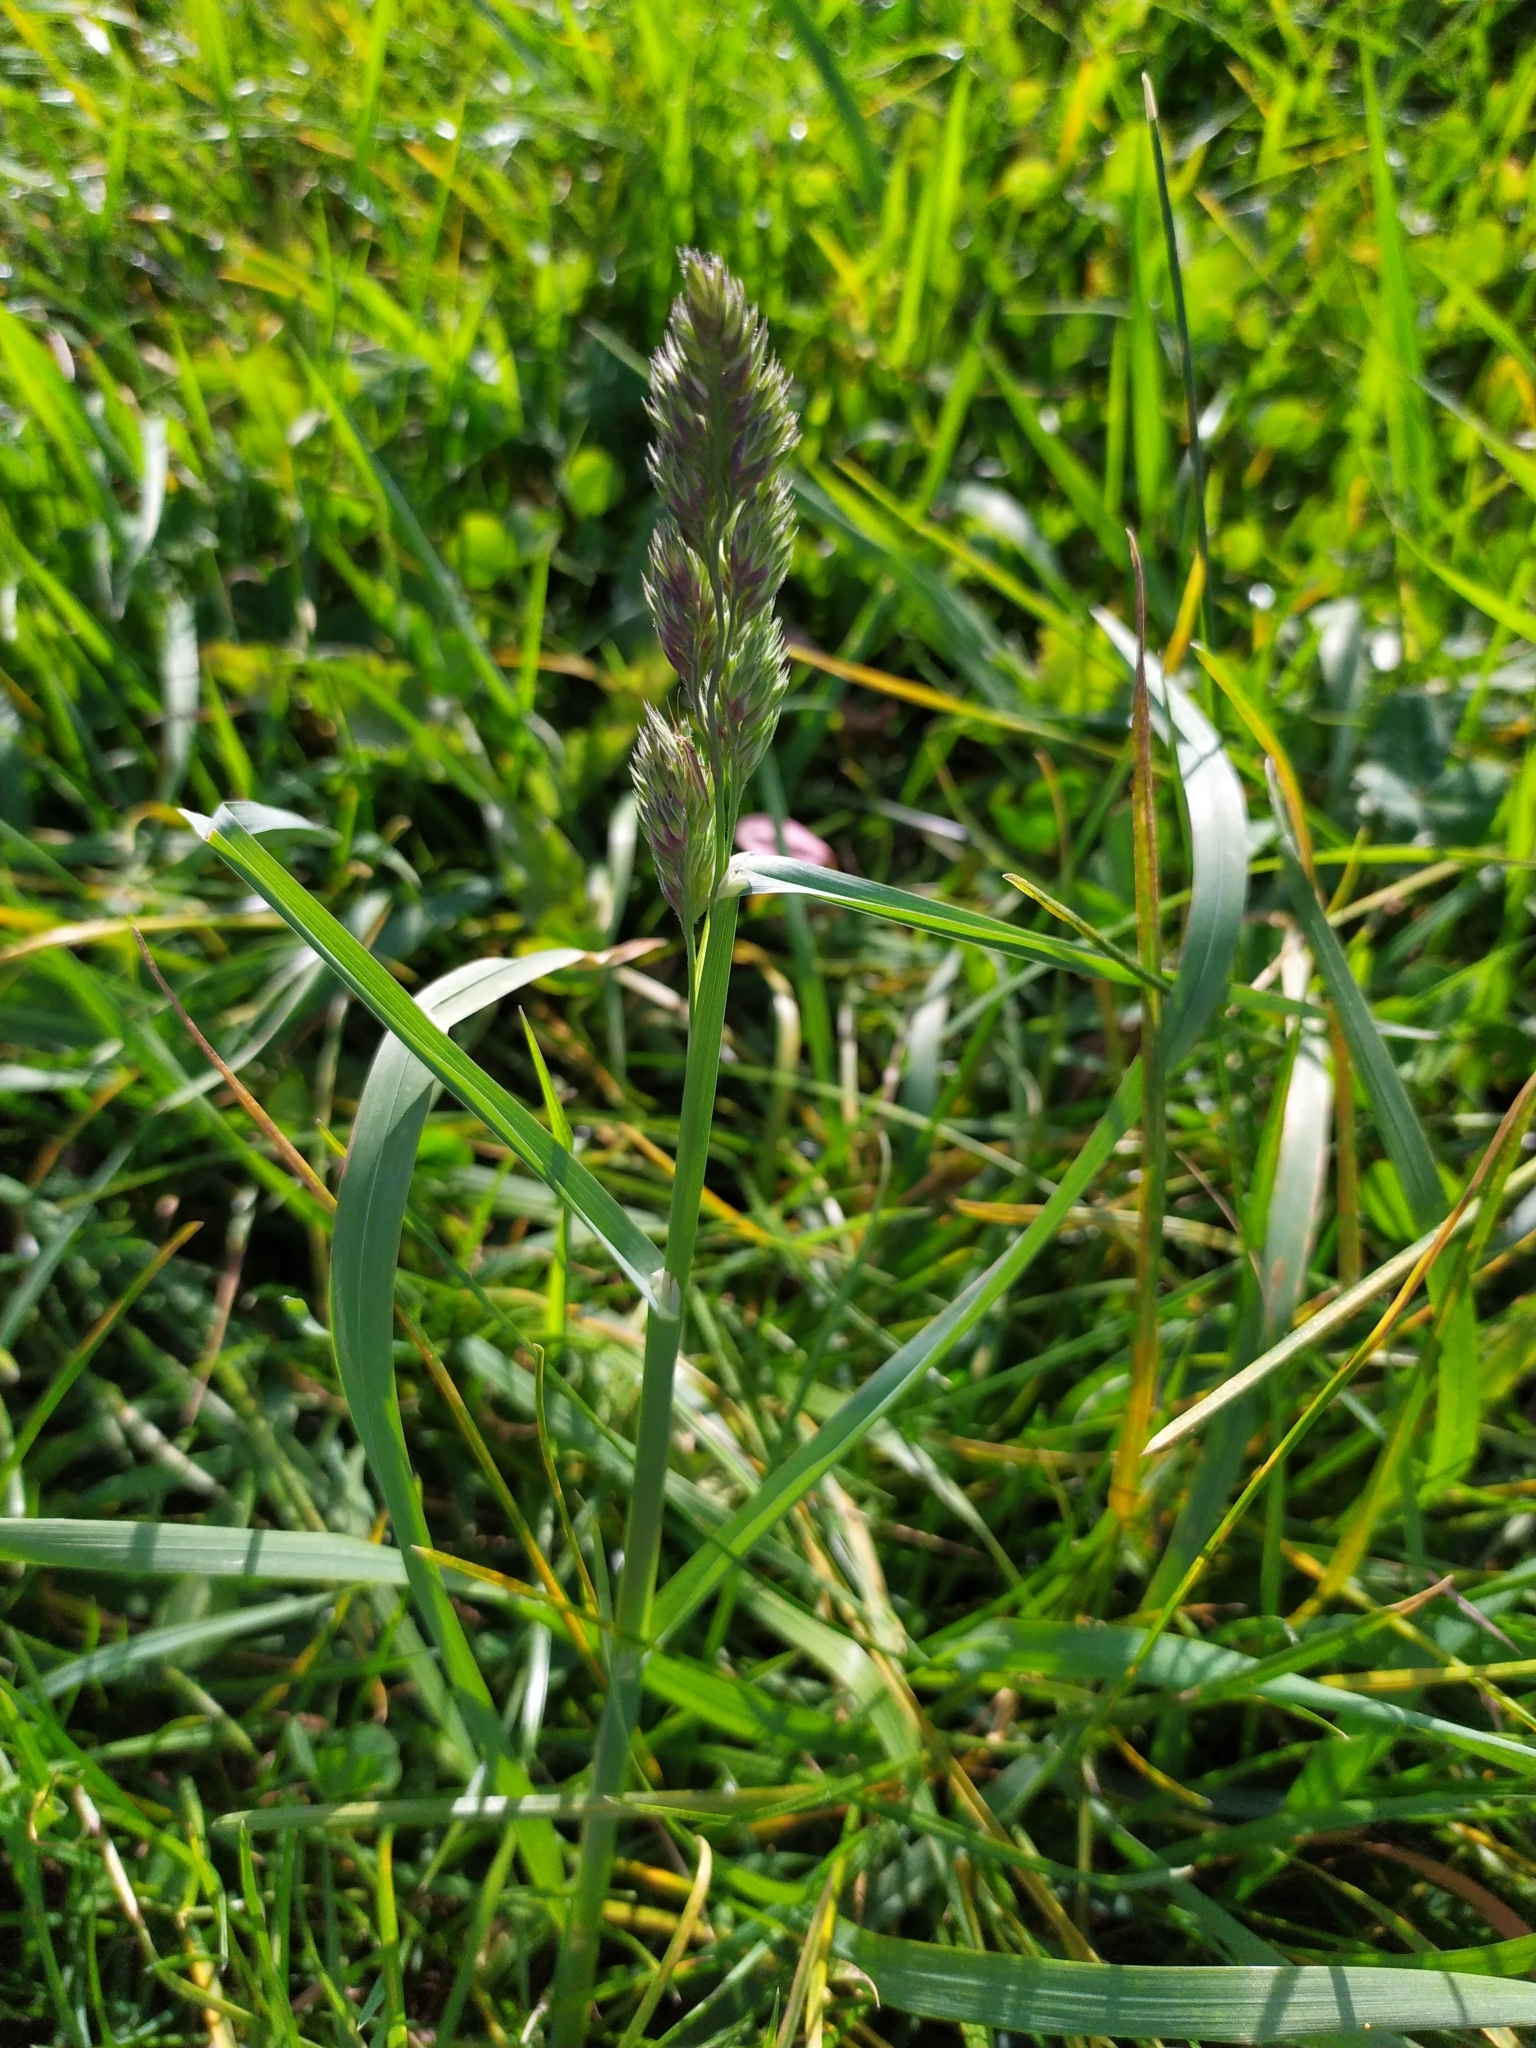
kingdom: Plantae
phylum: Tracheophyta
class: Liliopsida
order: Poales
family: Poaceae
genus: Dactylis
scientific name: Dactylis glomerata
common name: Orchardgrass
